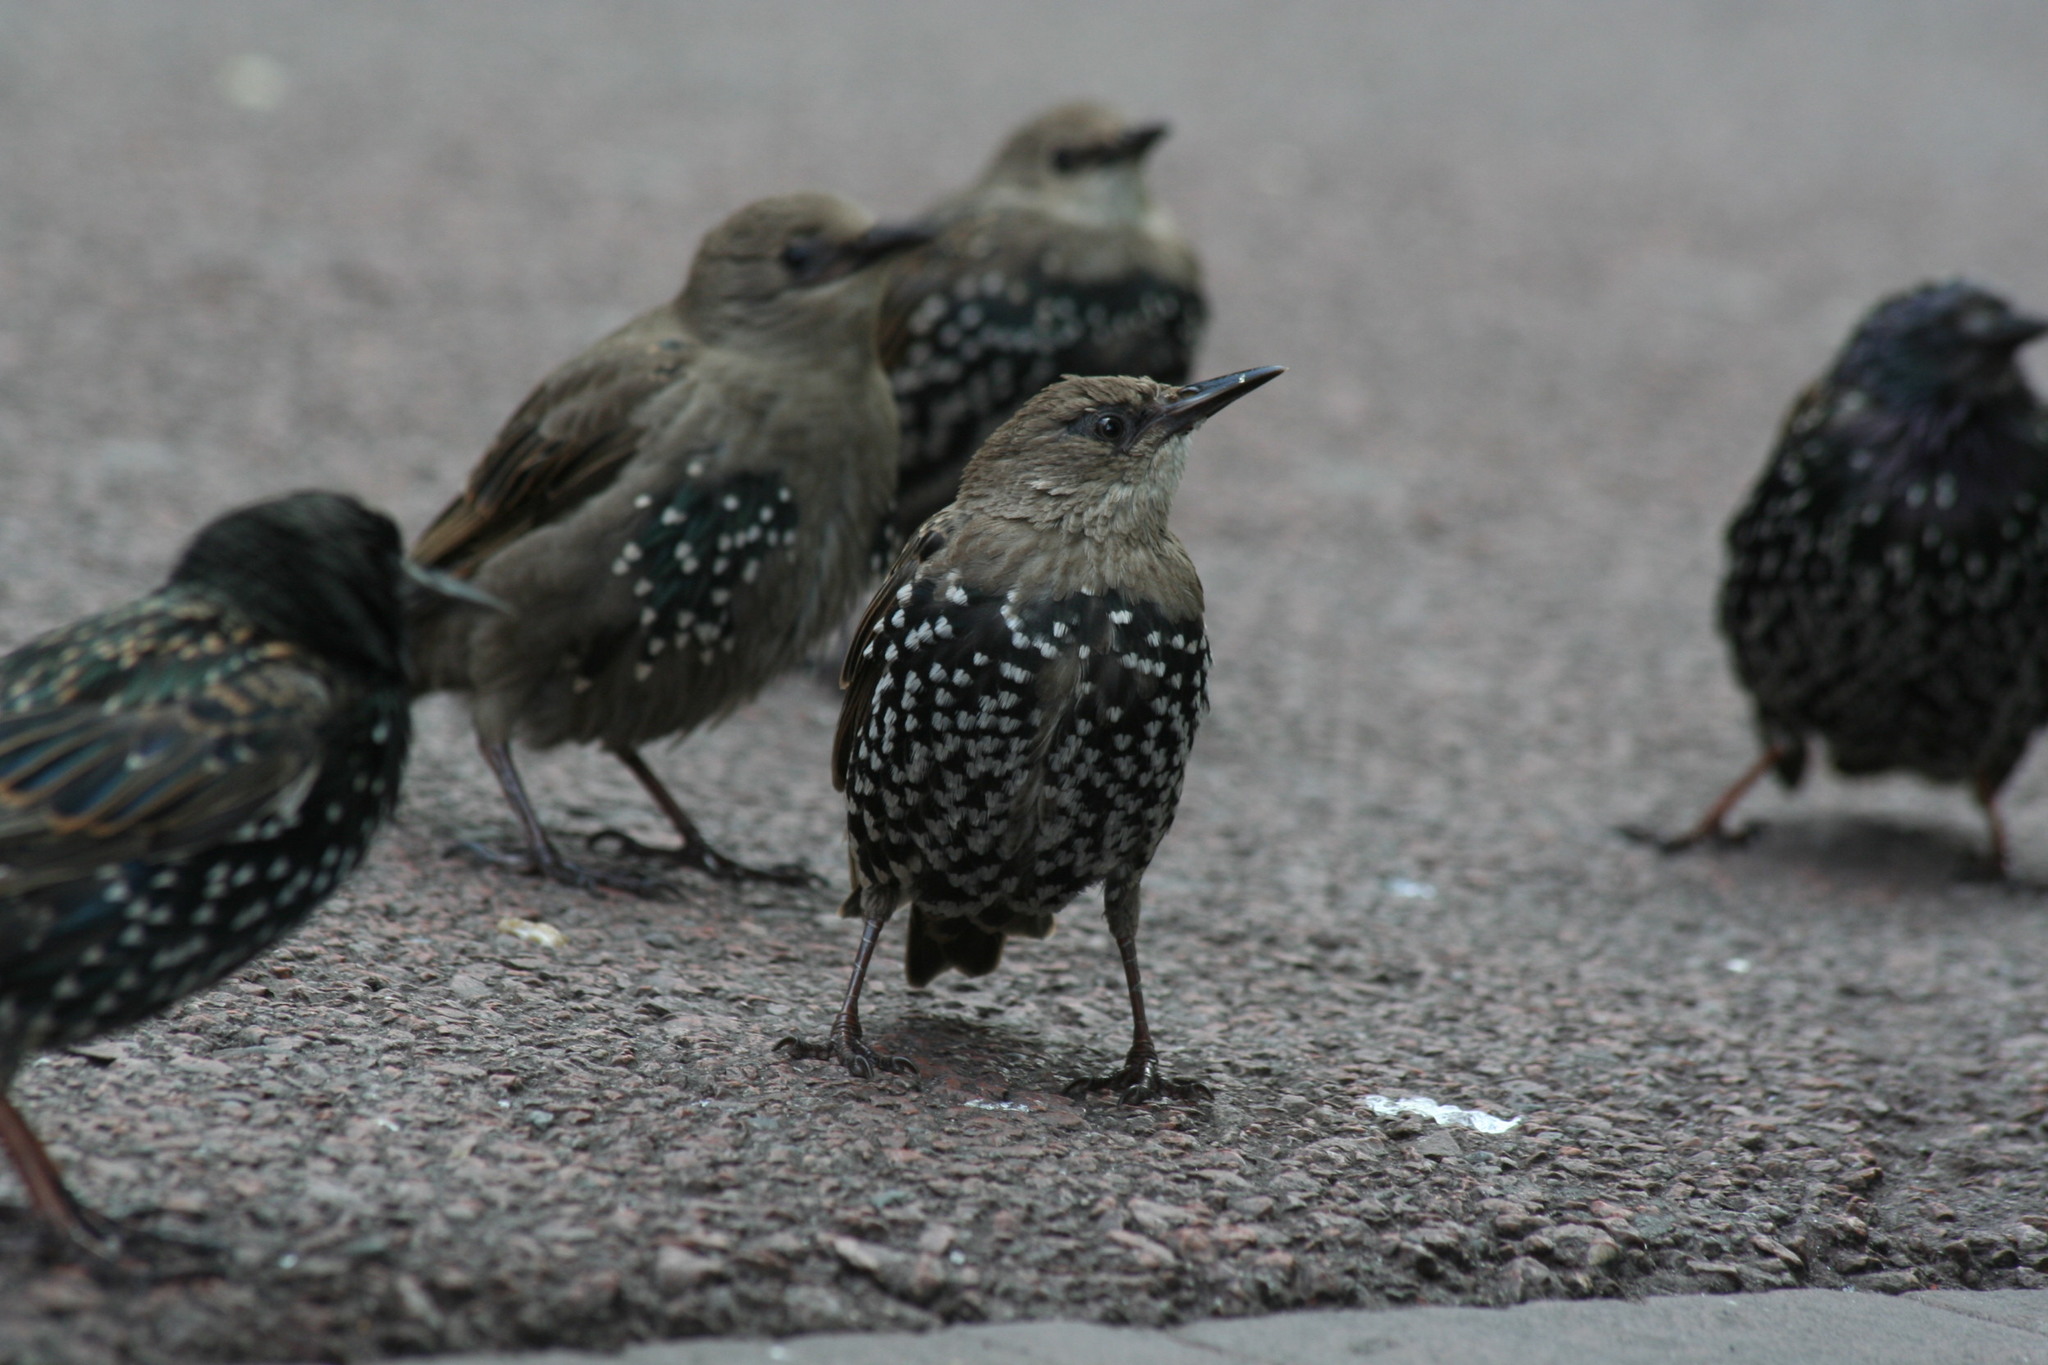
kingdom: Animalia
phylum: Chordata
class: Aves
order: Passeriformes
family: Sturnidae
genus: Sturnus
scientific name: Sturnus vulgaris
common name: Common starling
